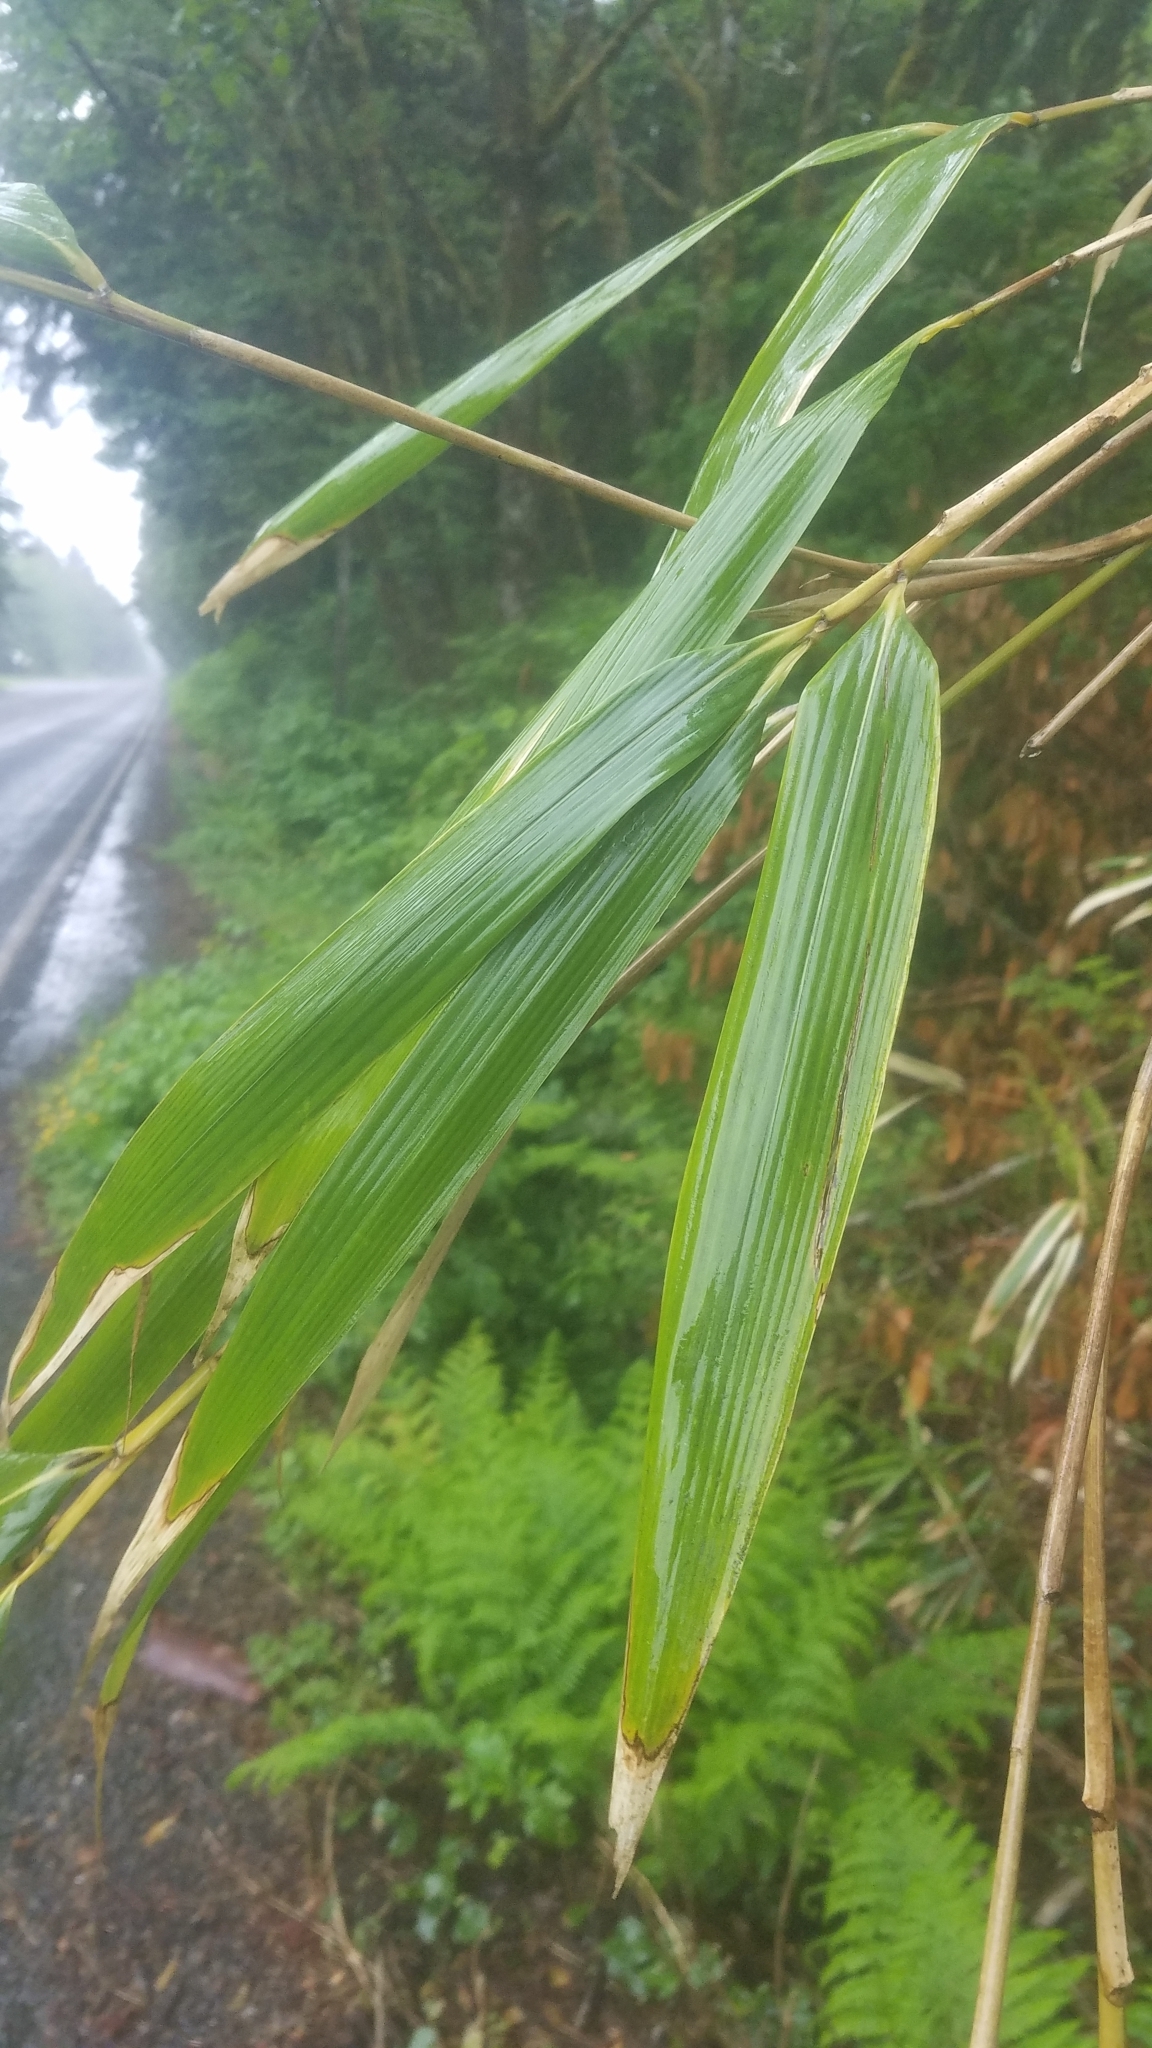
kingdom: Plantae
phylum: Tracheophyta
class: Liliopsida
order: Poales
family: Poaceae
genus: Pseudosasa
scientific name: Pseudosasa japonica
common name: Arrow bamboo
